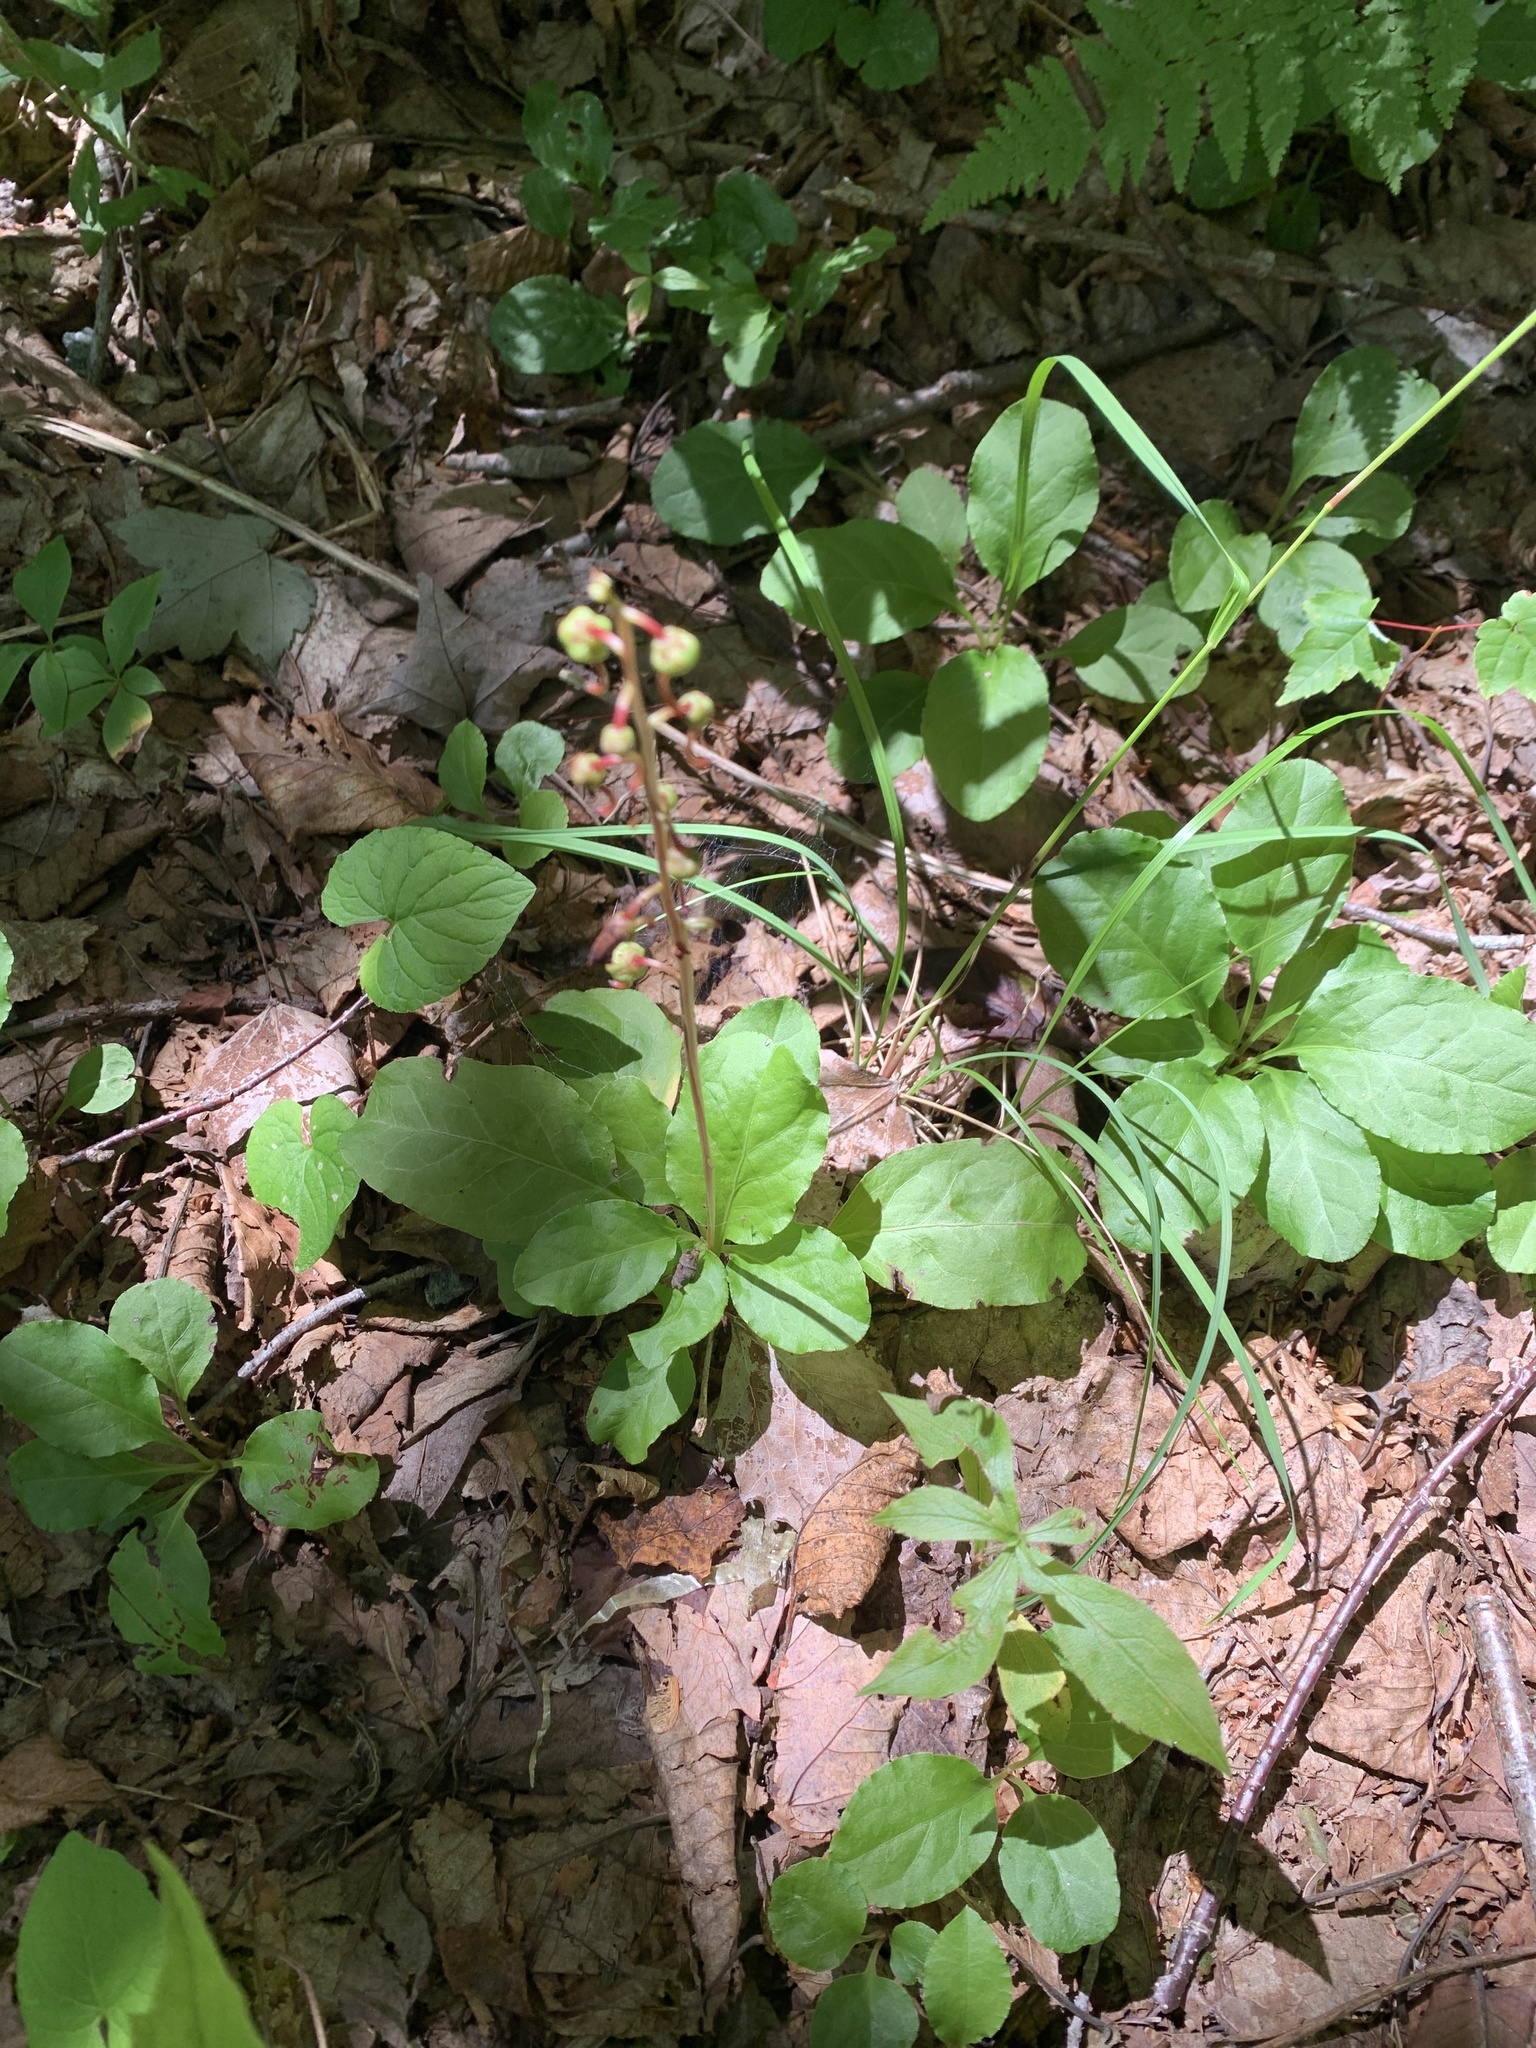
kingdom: Plantae
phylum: Tracheophyta
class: Magnoliopsida
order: Ericales
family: Ericaceae
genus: Pyrola
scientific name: Pyrola elliptica
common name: Shinleaf
